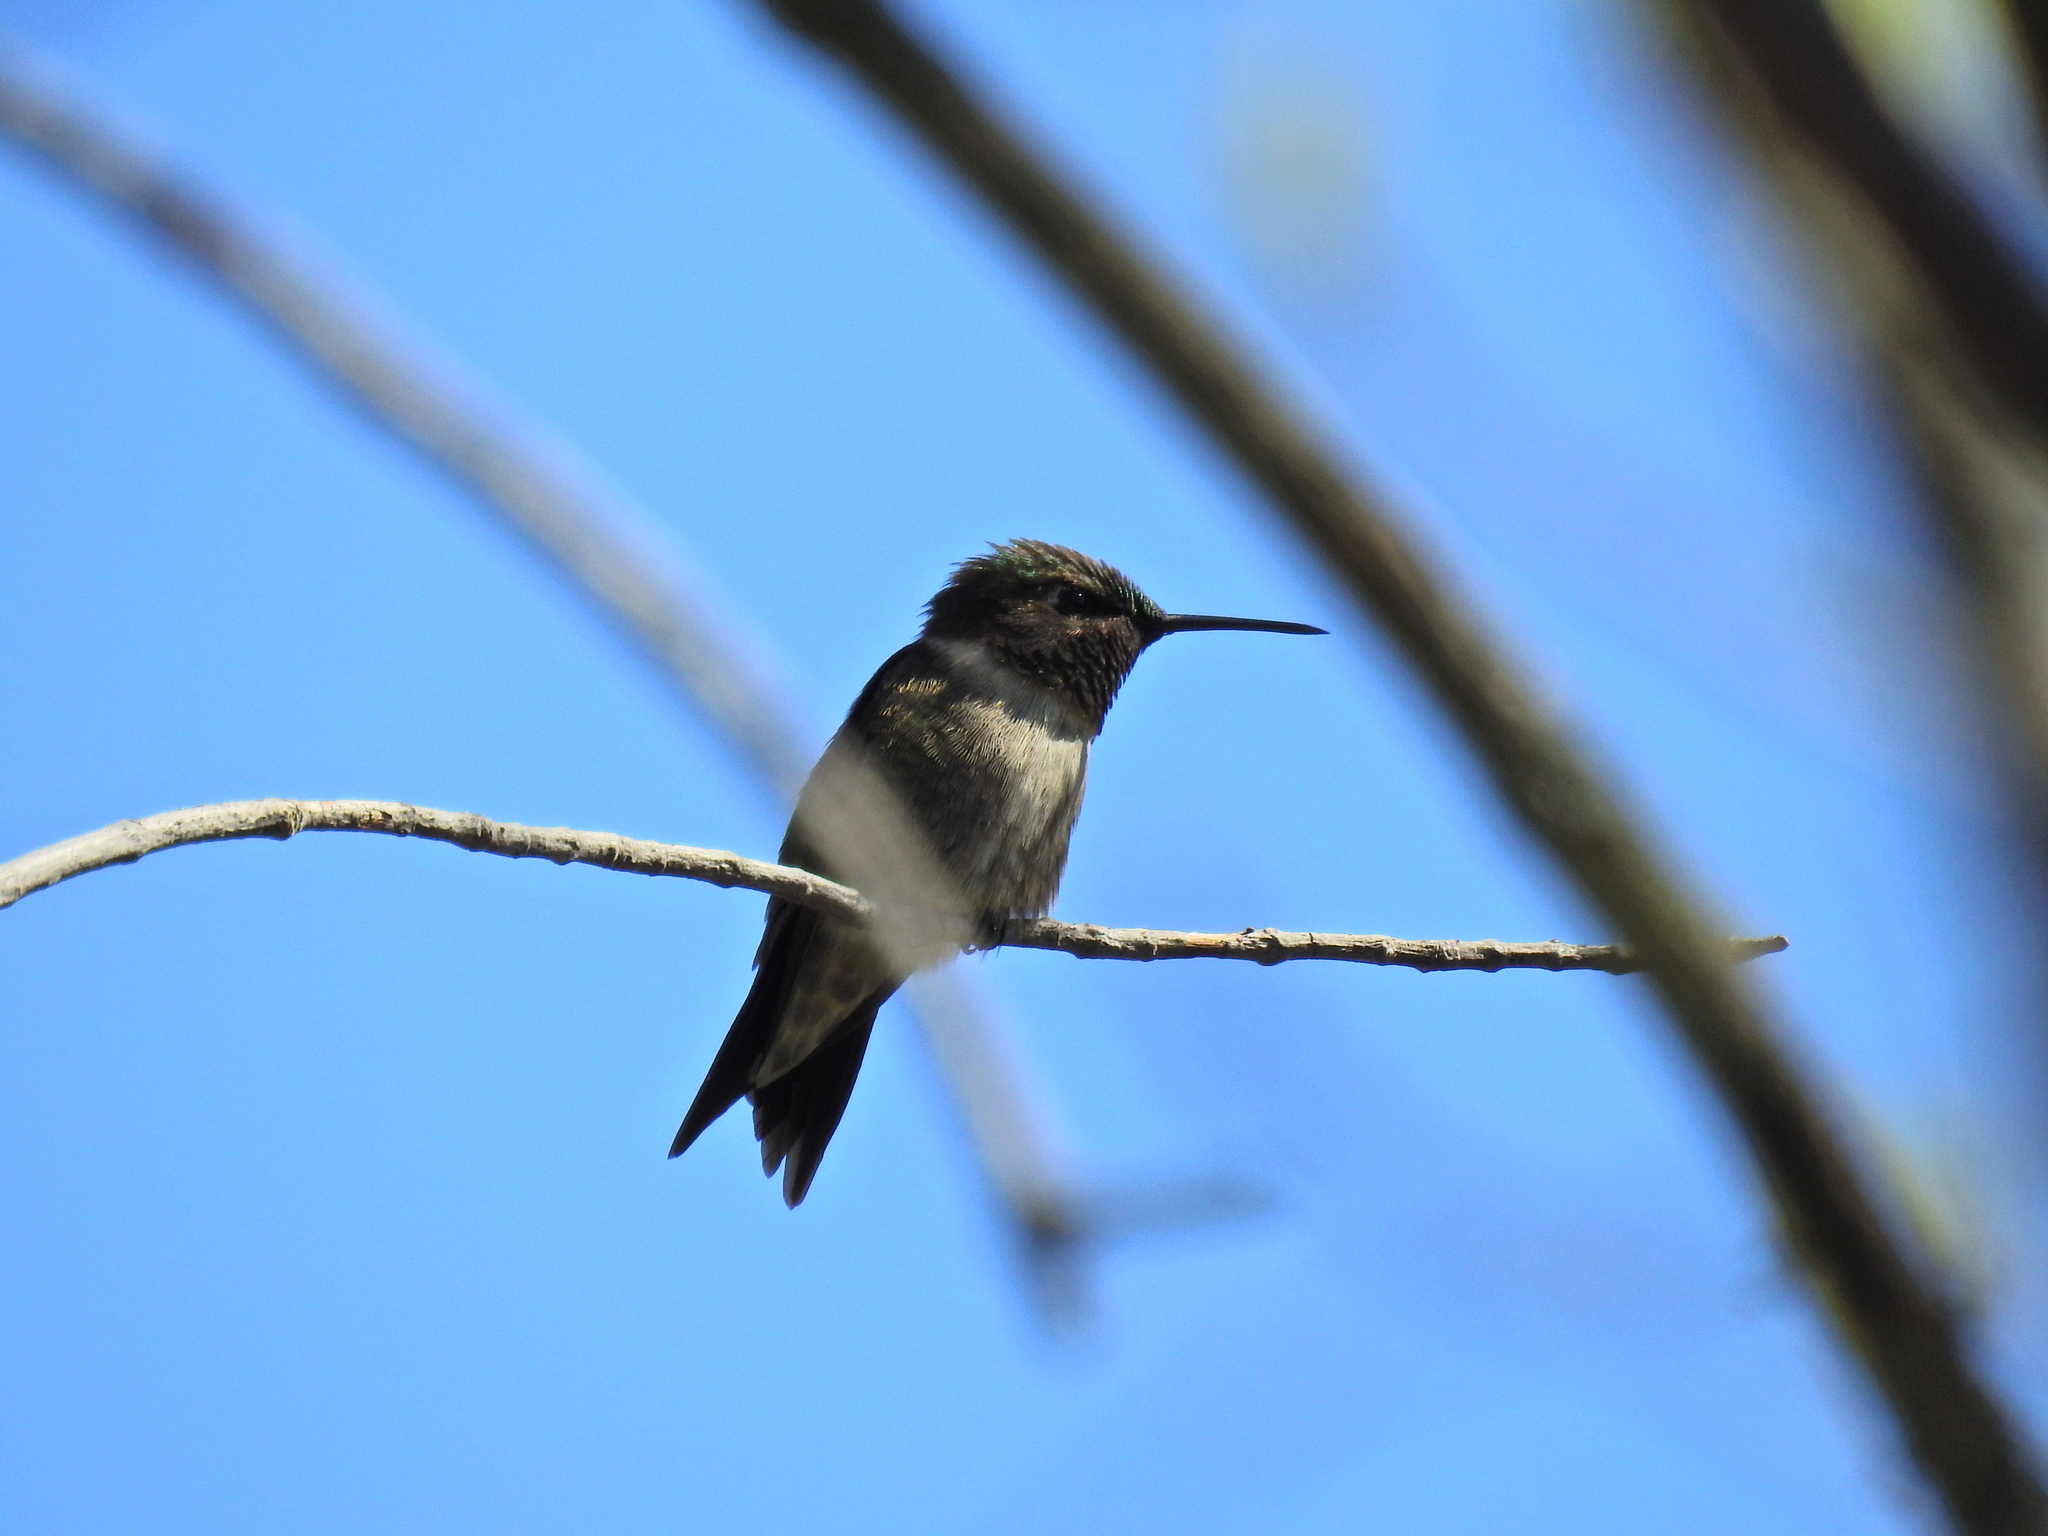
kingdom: Animalia
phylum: Chordata
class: Aves
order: Apodiformes
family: Trochilidae
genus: Archilochus
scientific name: Archilochus colubris
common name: Ruby-throated hummingbird
